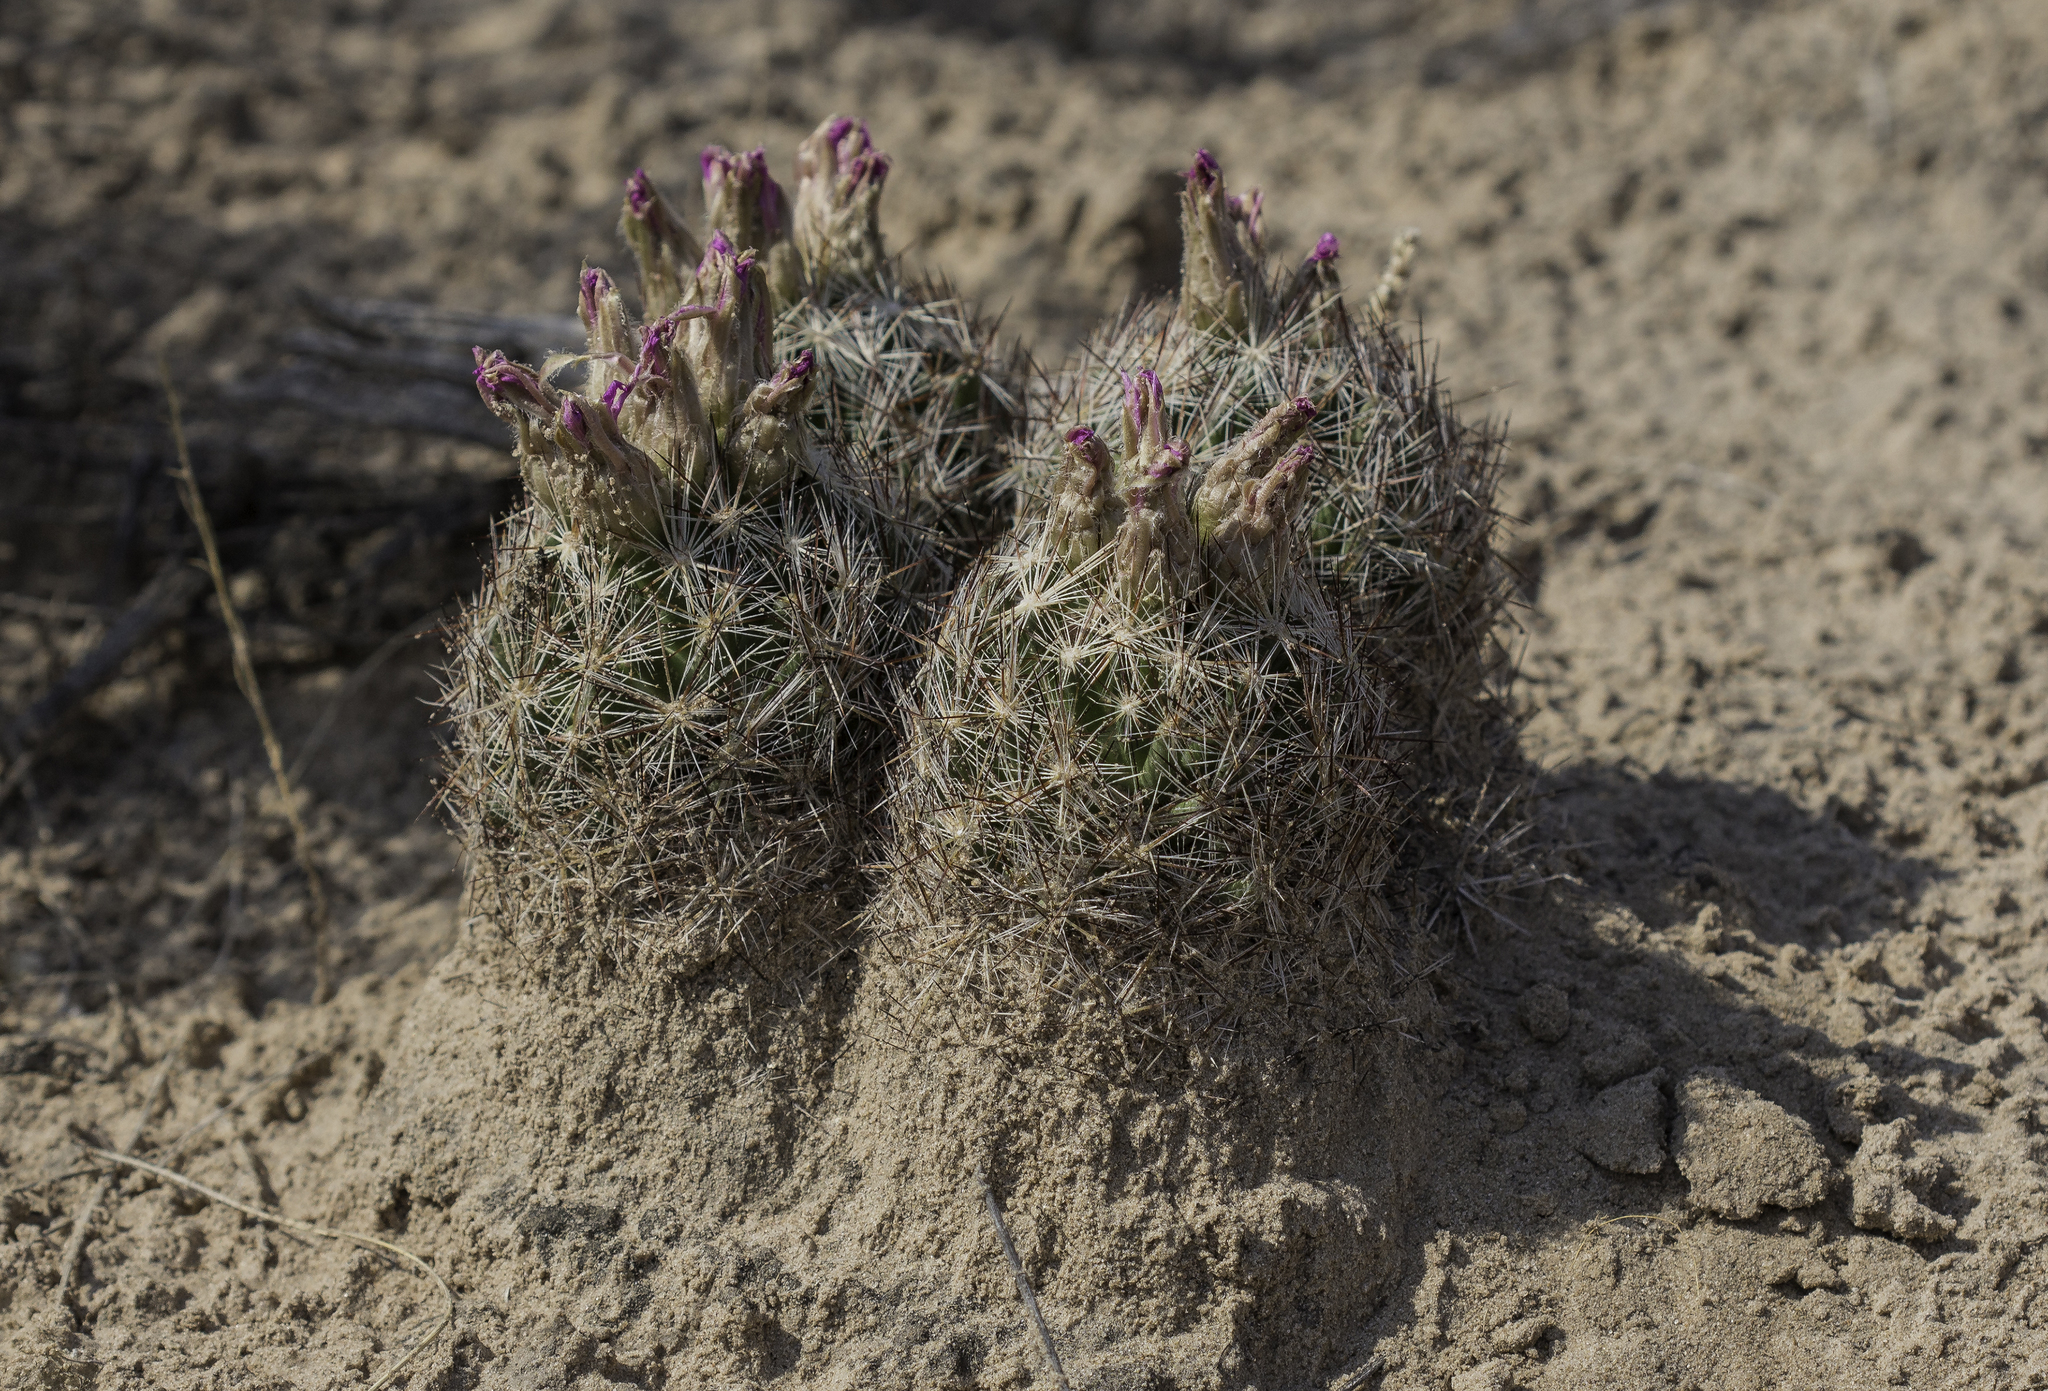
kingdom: Plantae
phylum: Tracheophyta
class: Magnoliopsida
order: Caryophyllales
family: Cactaceae
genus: Pelecyphora
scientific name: Pelecyphora vivipara
